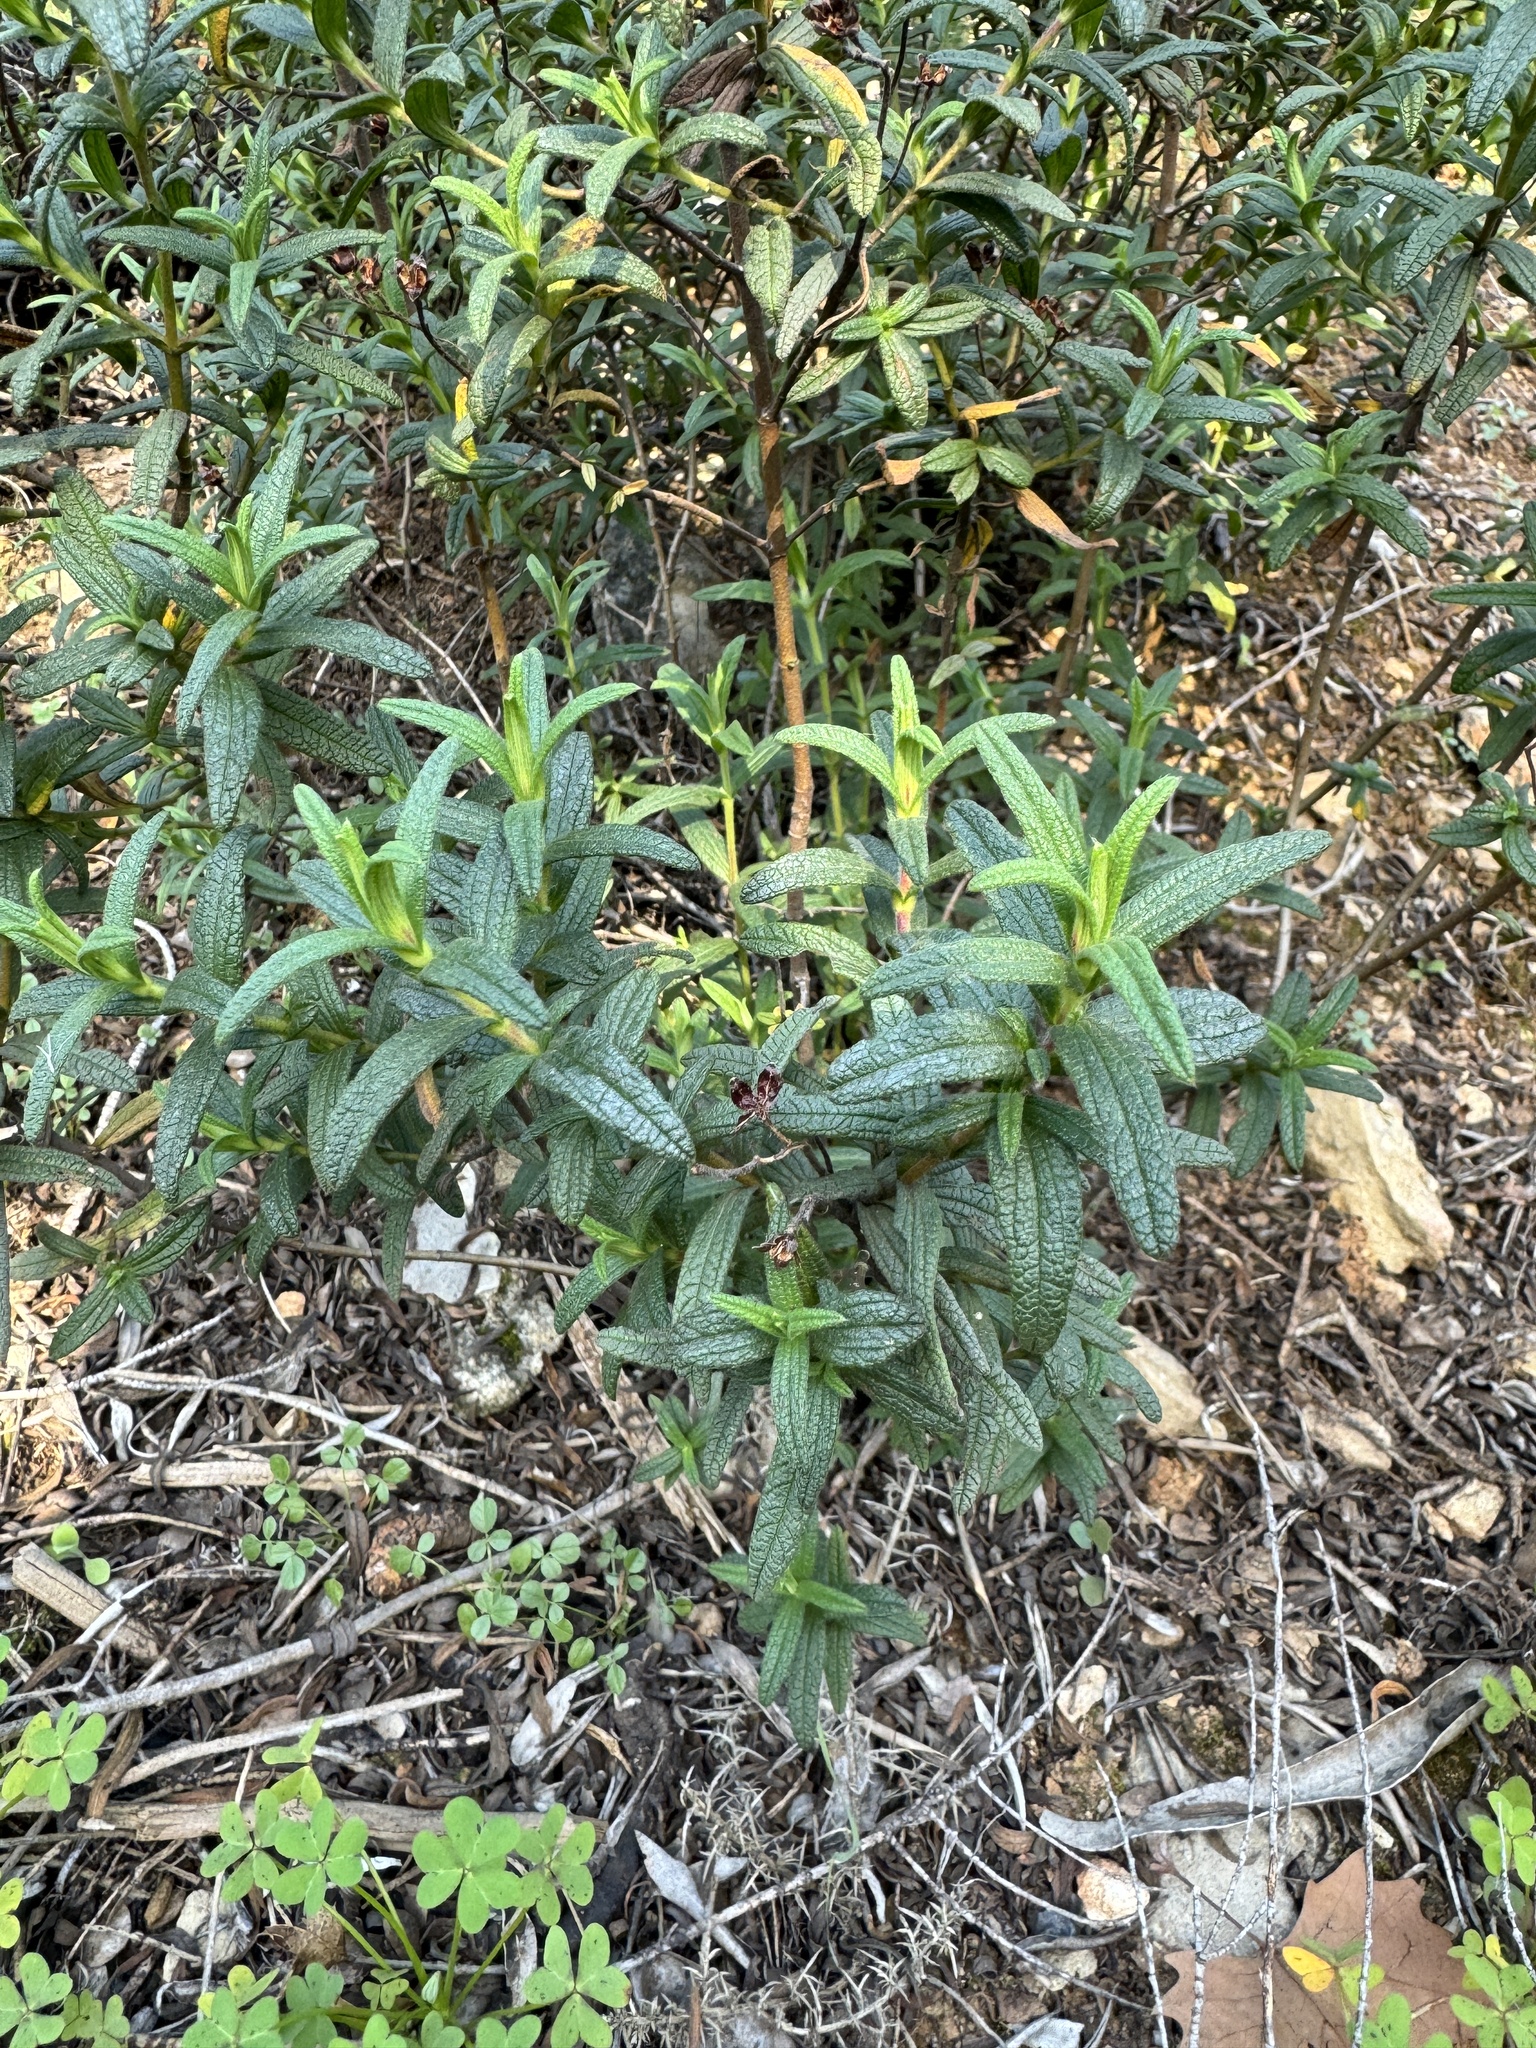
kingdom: Plantae
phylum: Tracheophyta
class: Magnoliopsida
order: Malvales
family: Cistaceae
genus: Cistus
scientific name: Cistus monspeliensis
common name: Montpelier cistus
